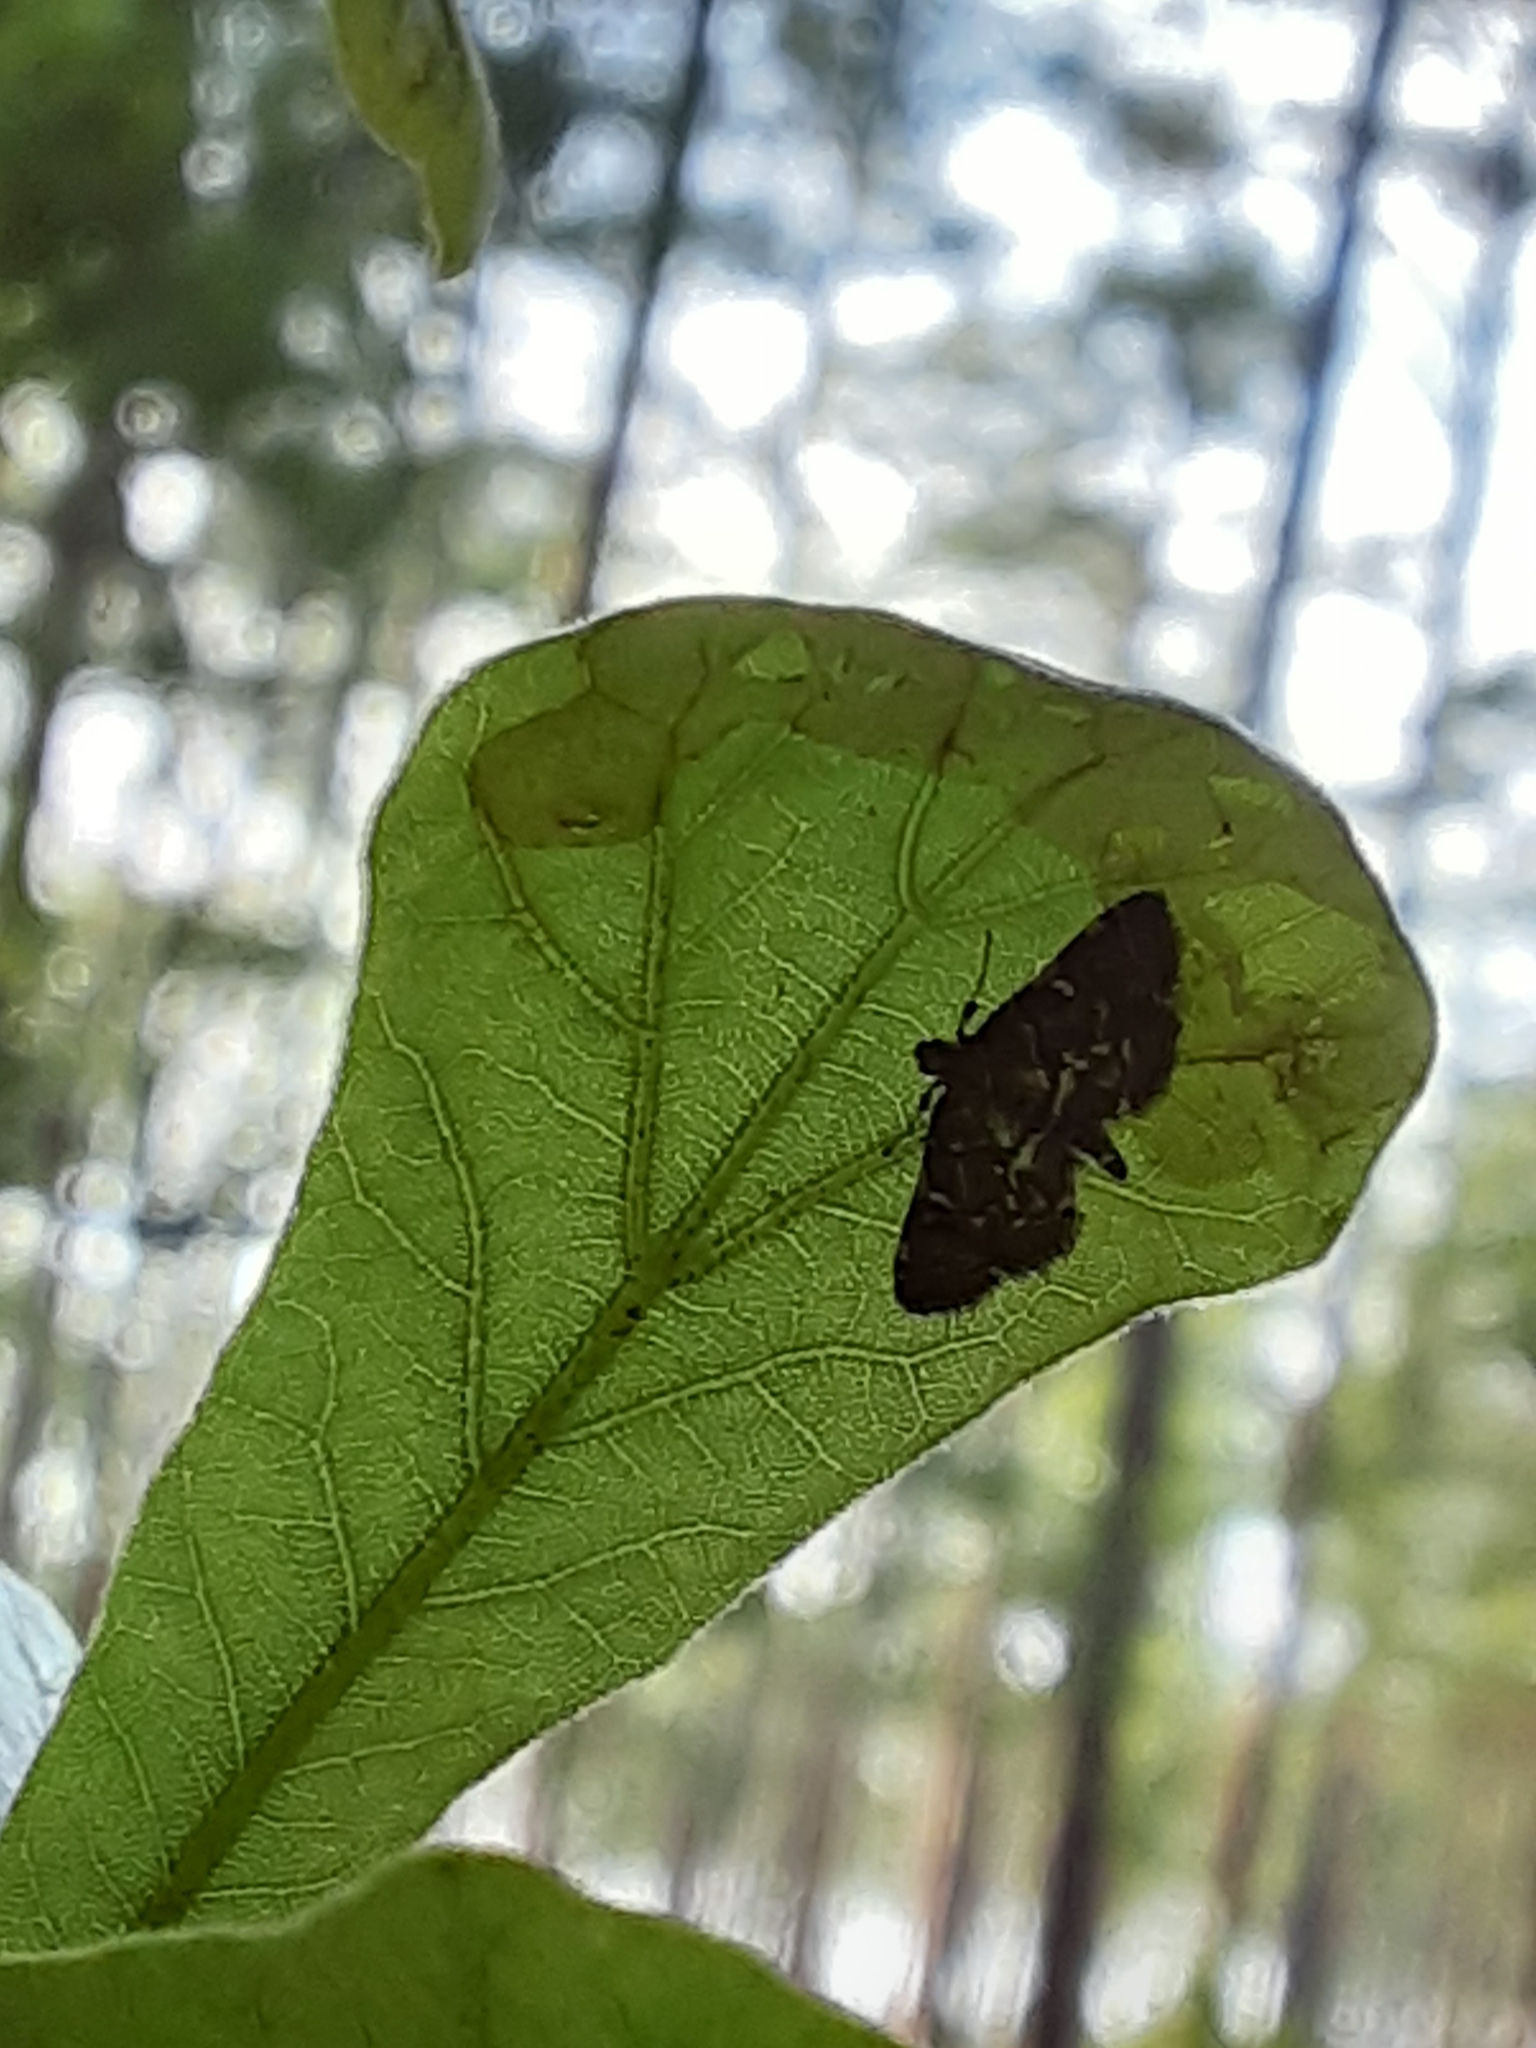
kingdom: Animalia
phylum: Arthropoda
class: Insecta
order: Lepidoptera
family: Crambidae
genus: Anageshna
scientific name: Anageshna primordialis
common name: Yellow-spotted webworm moth
